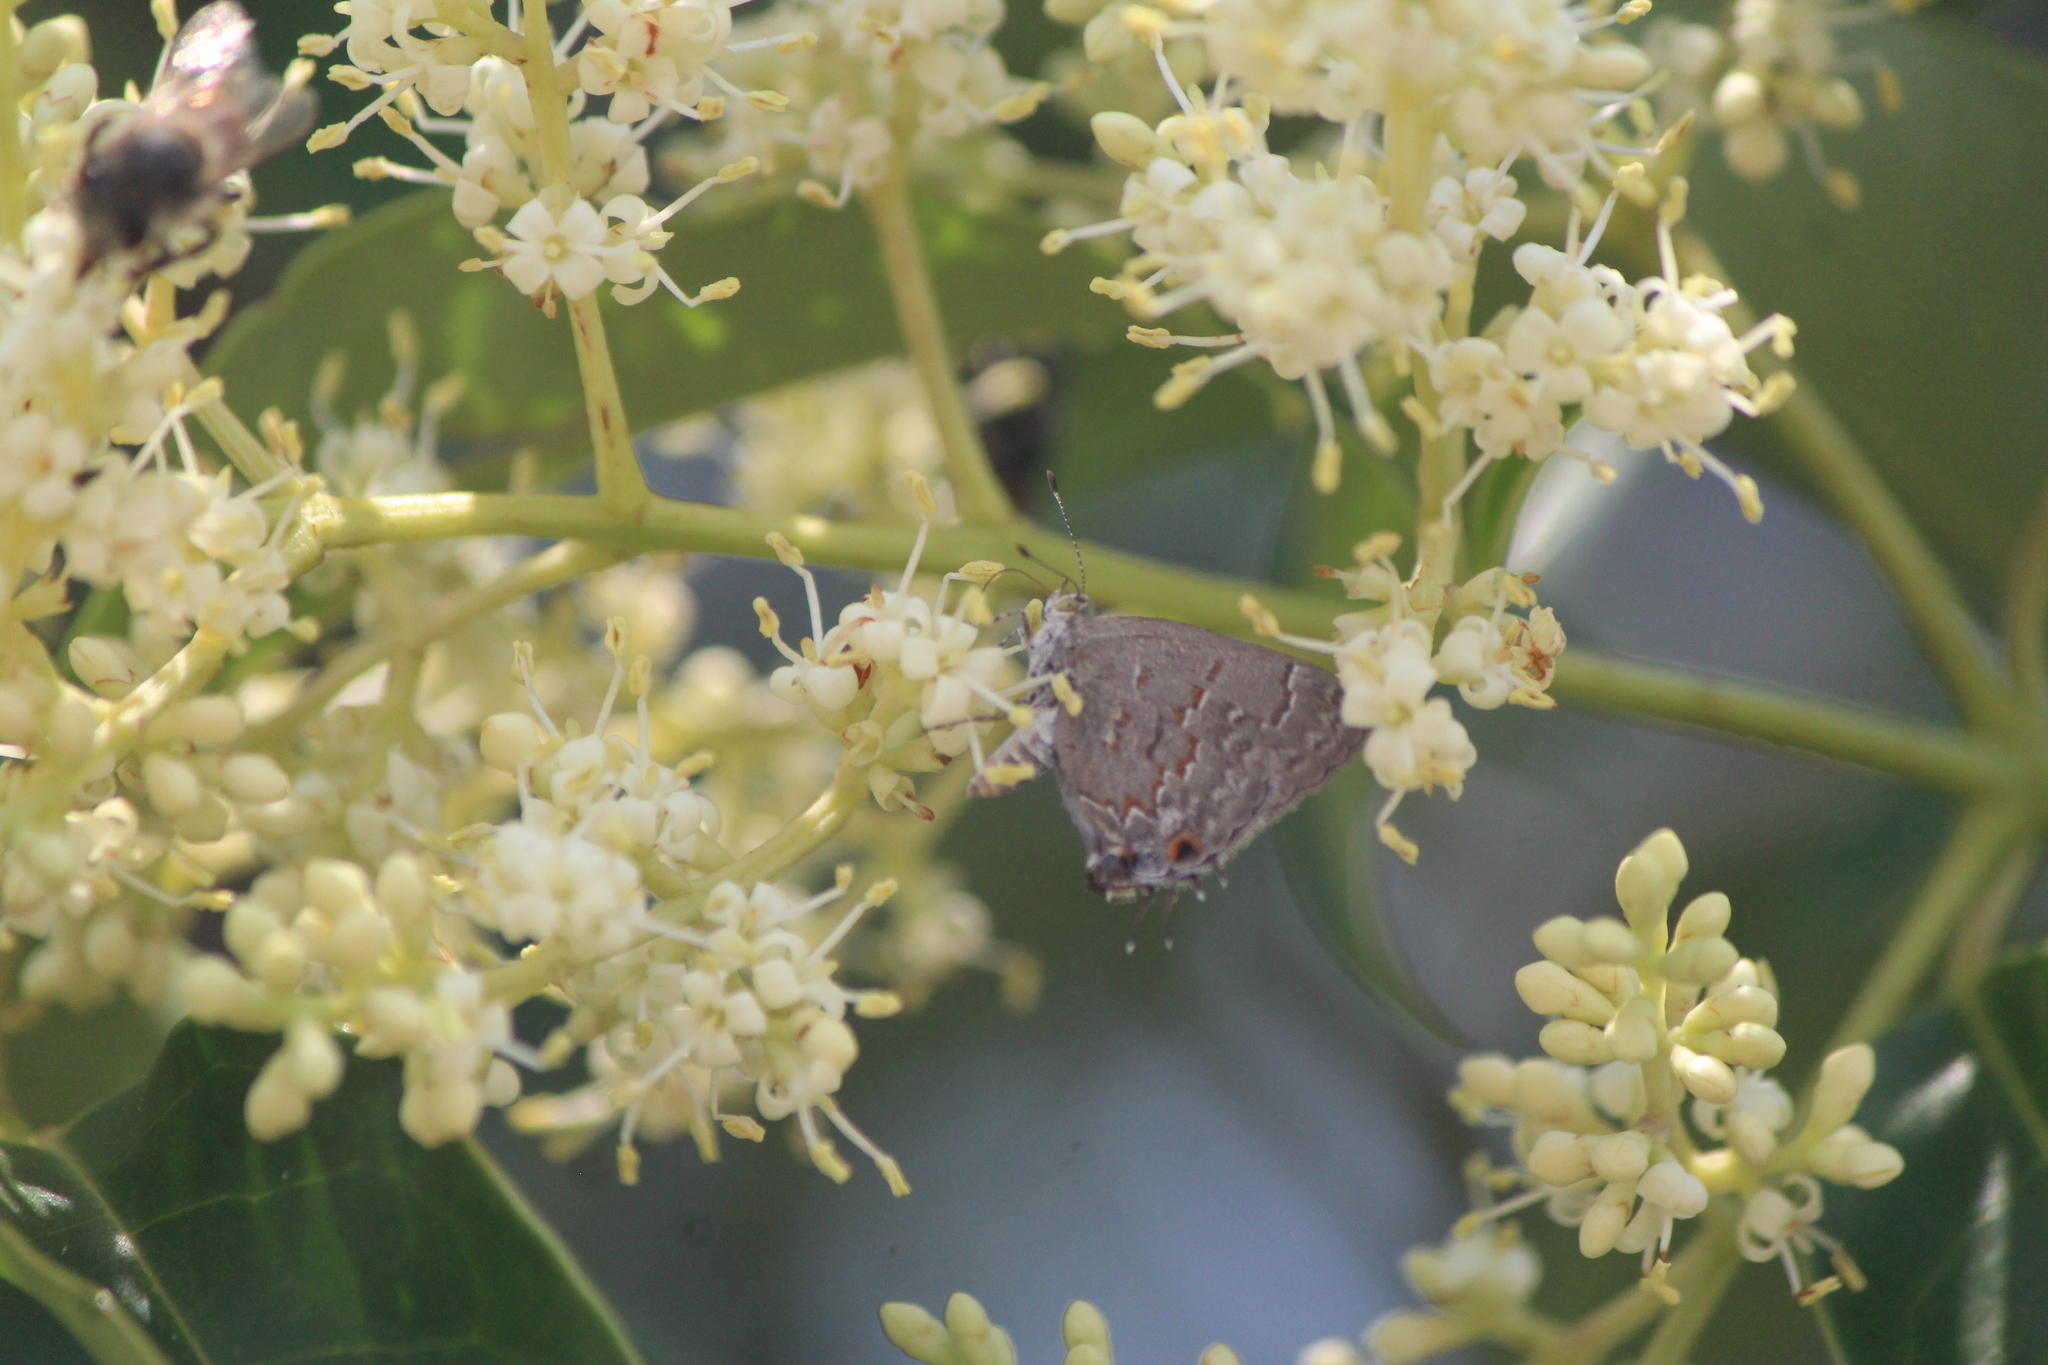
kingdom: Animalia
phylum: Arthropoda
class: Insecta
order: Lepidoptera
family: Lycaenidae
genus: Ministrymon
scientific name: Ministrymon leda
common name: Leda ministreak
